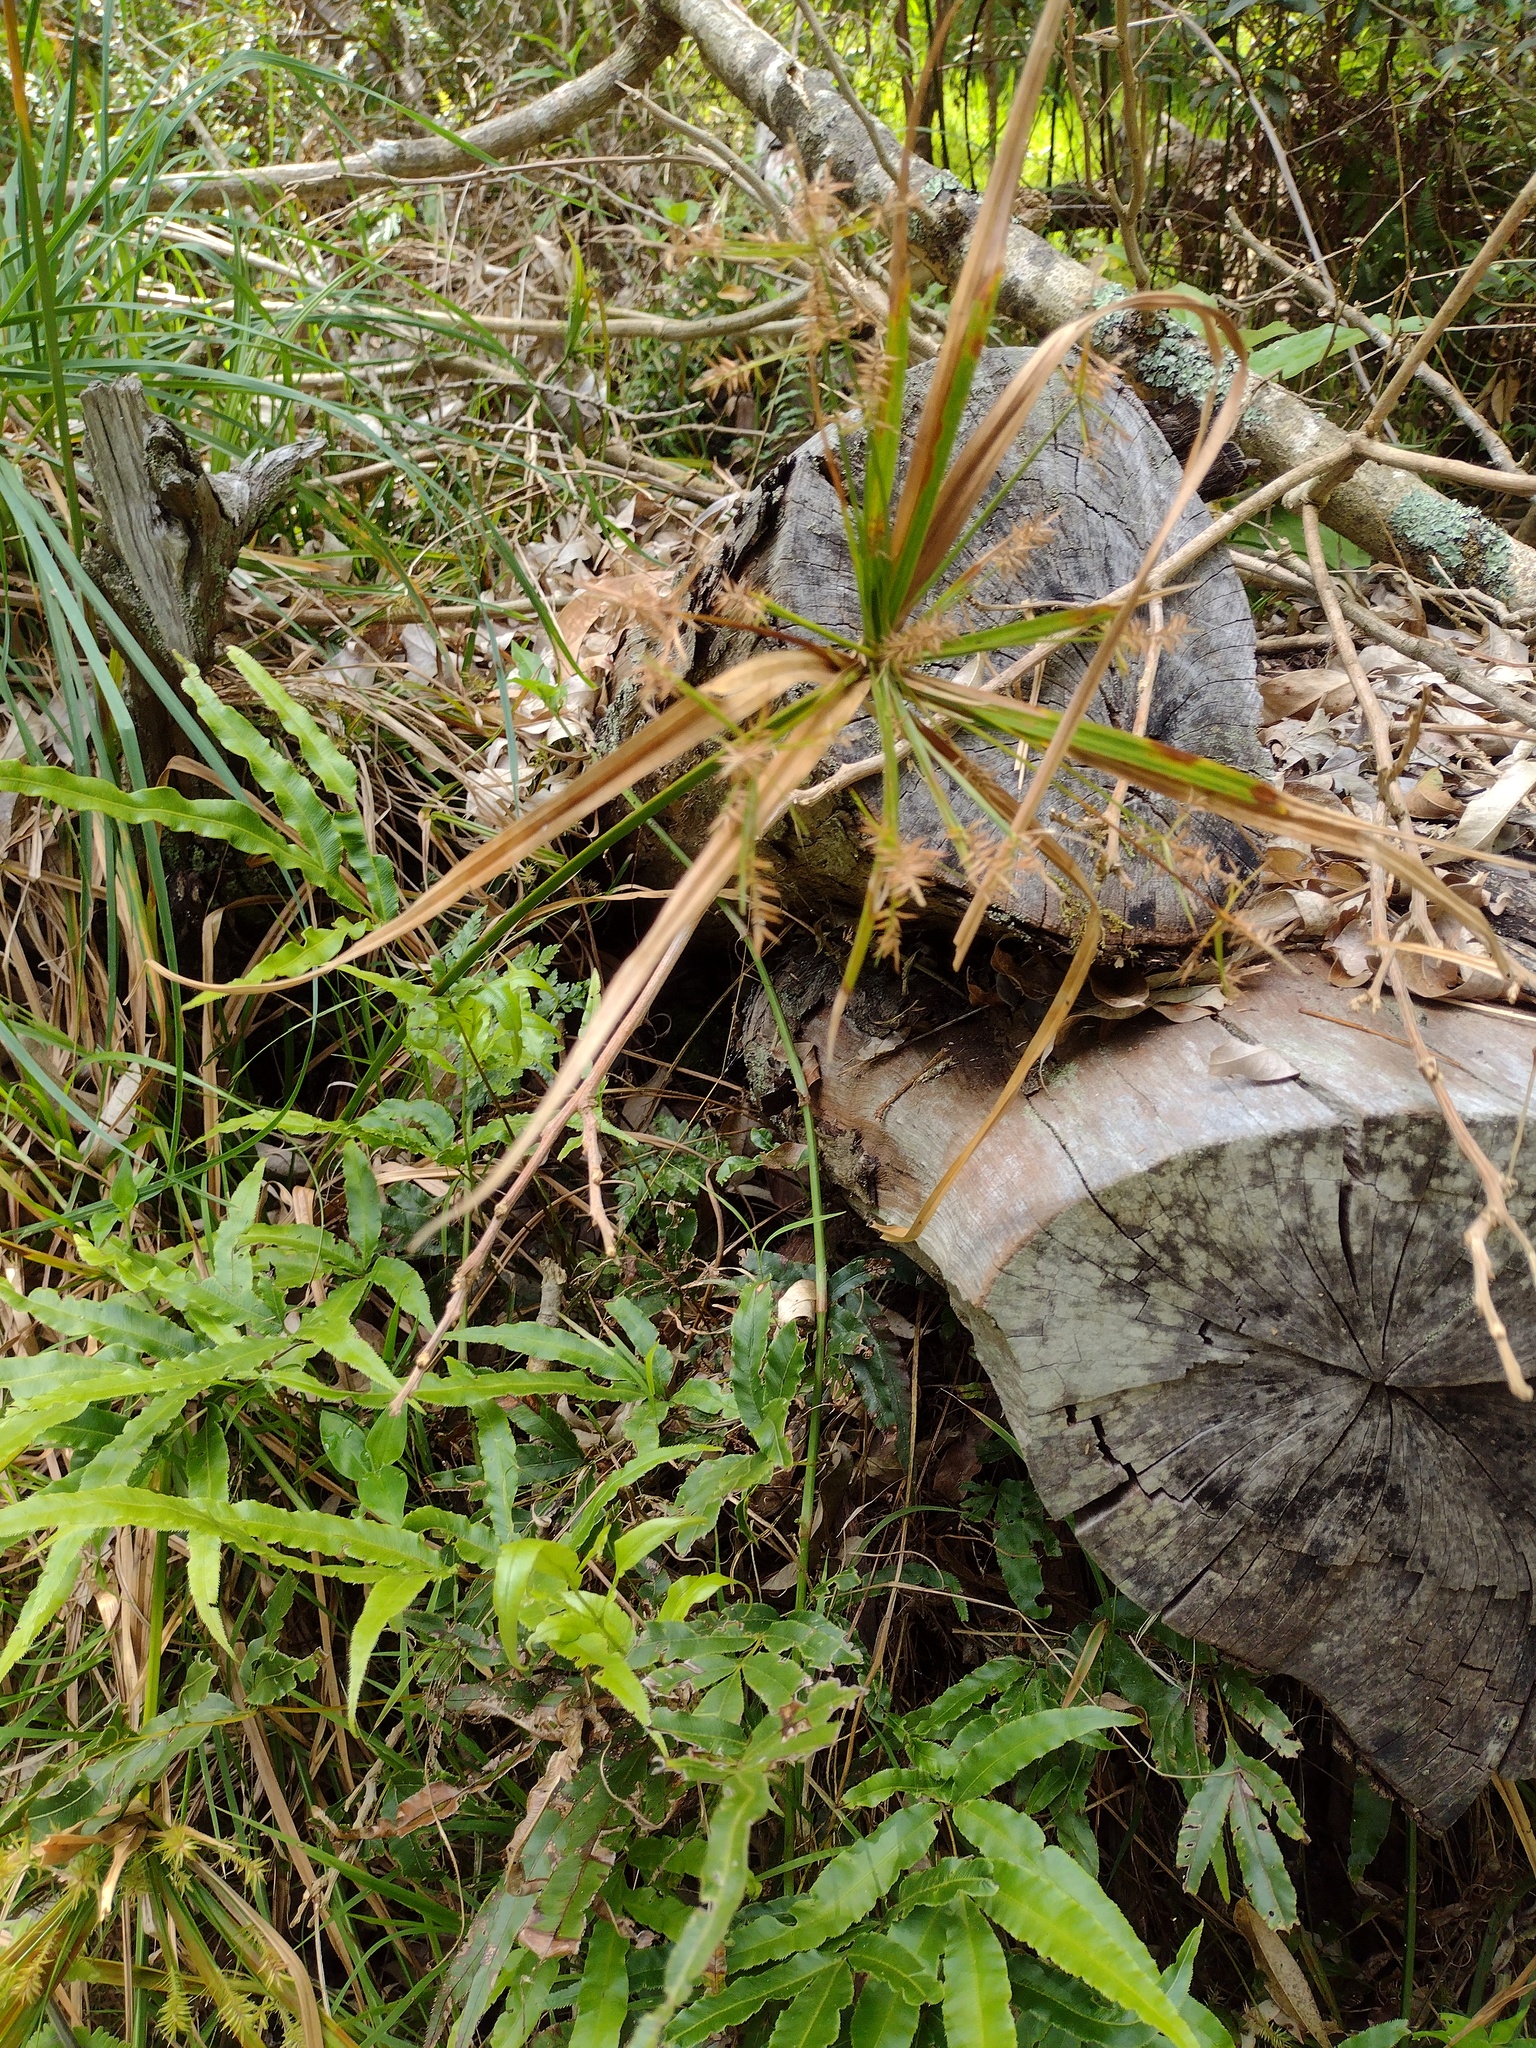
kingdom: Plantae
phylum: Tracheophyta
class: Polypodiopsida
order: Polypodiales
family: Pteridaceae
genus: Pteris
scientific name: Pteris cretica
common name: Ribbon fern
